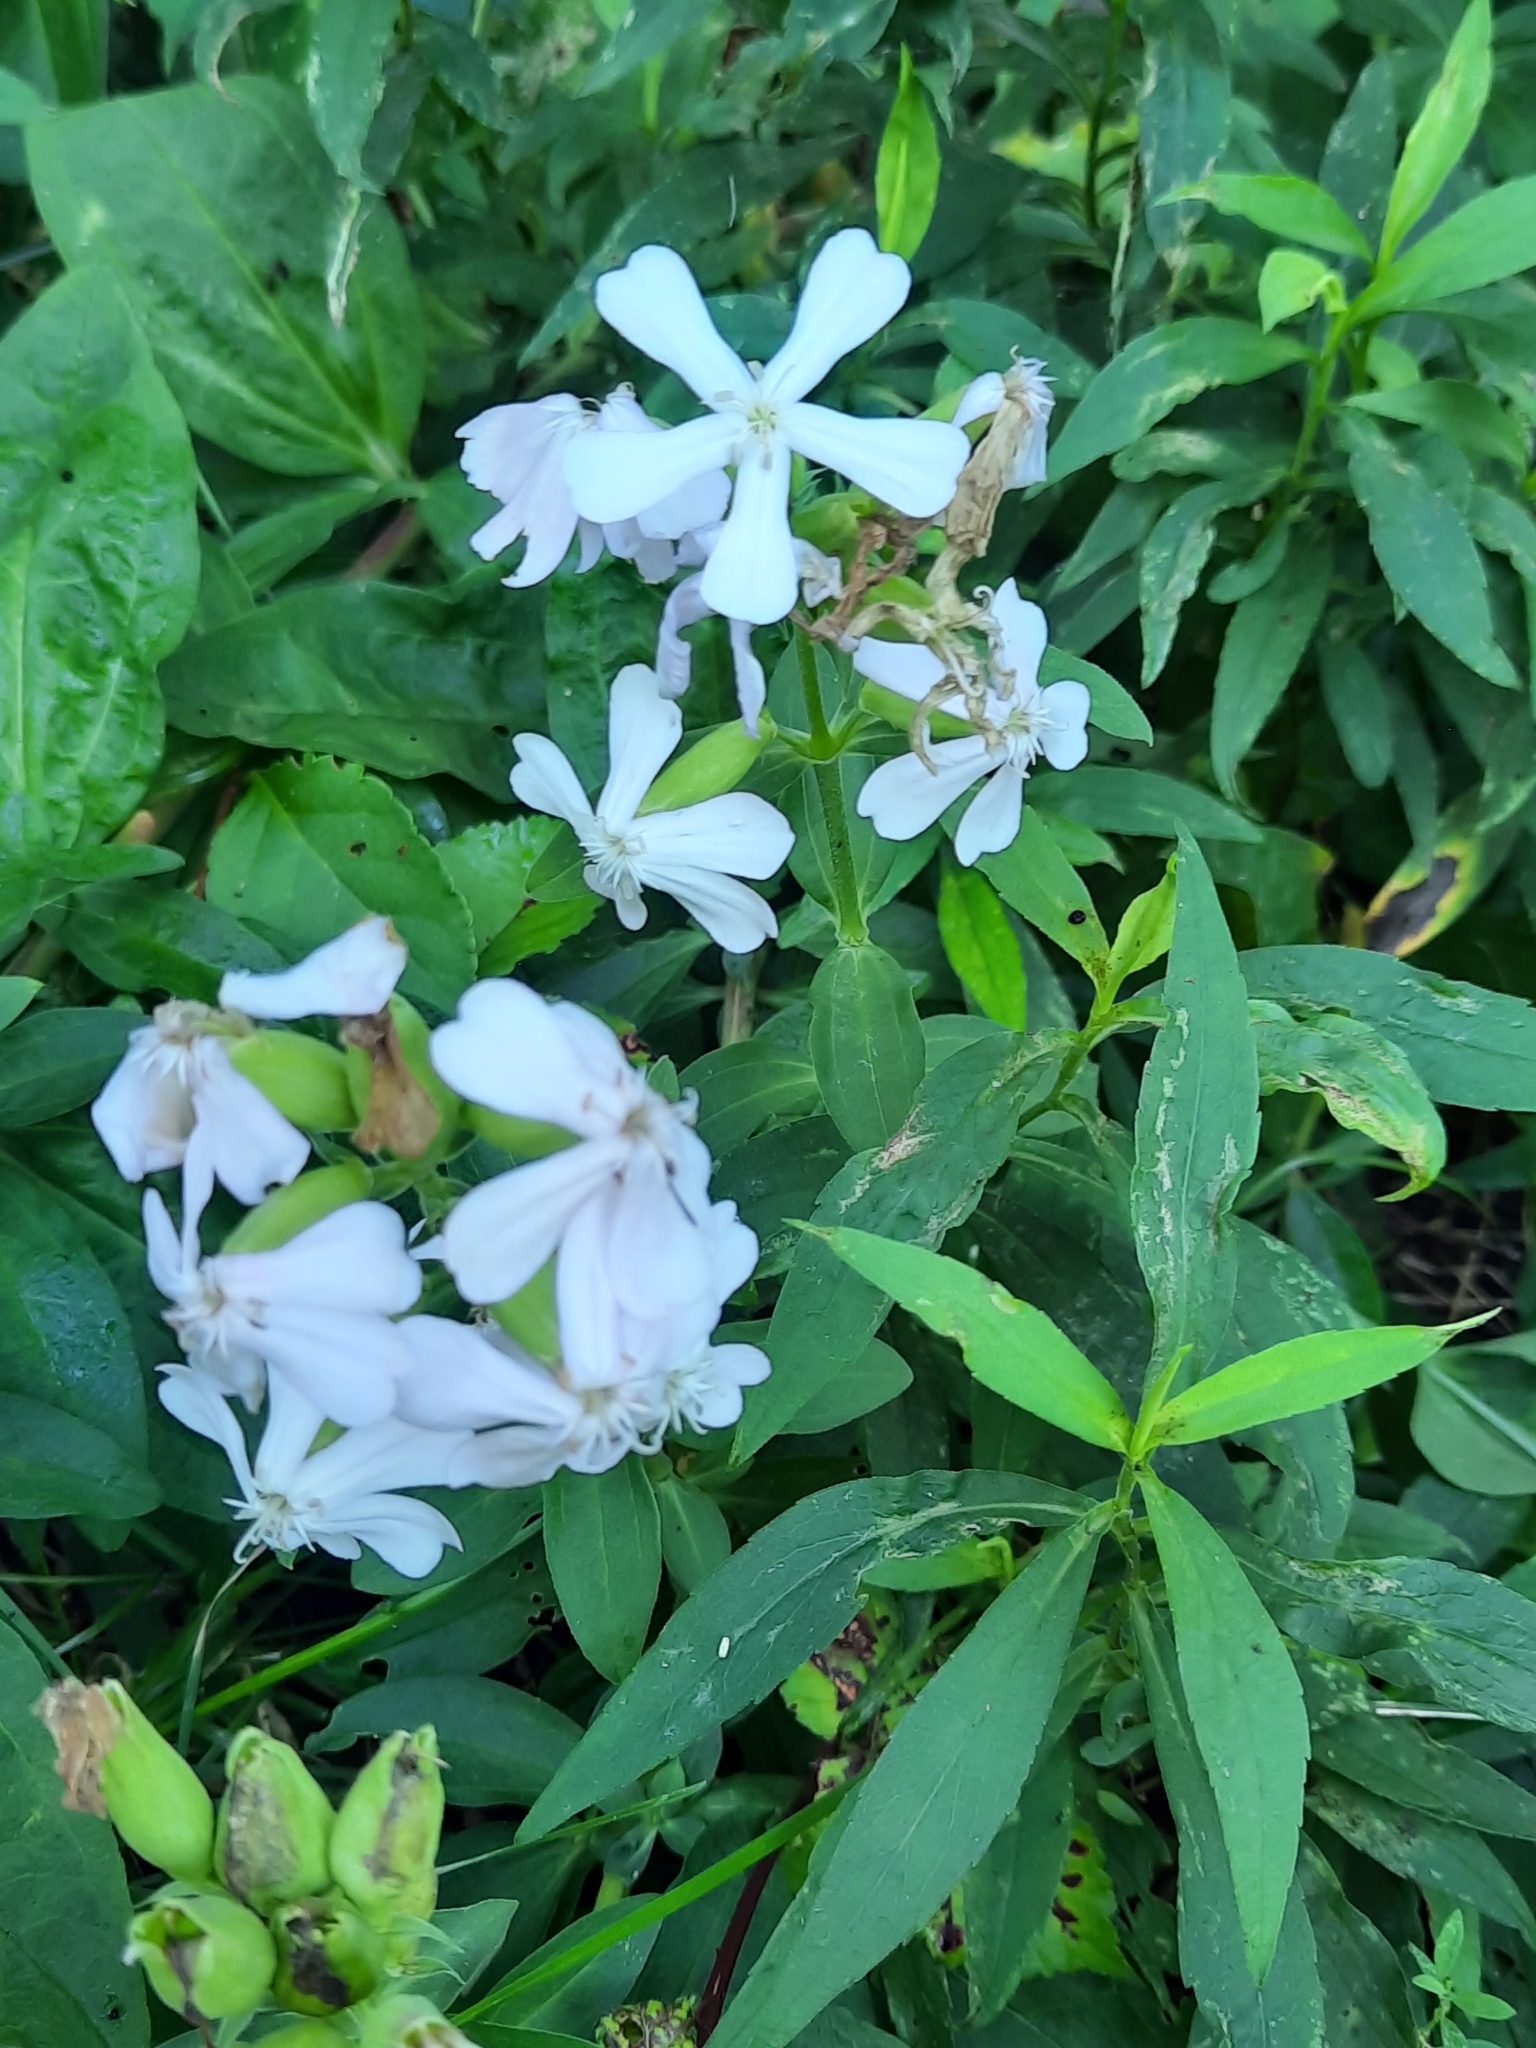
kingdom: Plantae
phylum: Tracheophyta
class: Magnoliopsida
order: Caryophyllales
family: Caryophyllaceae
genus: Saponaria
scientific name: Saponaria officinalis
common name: Soapwort
